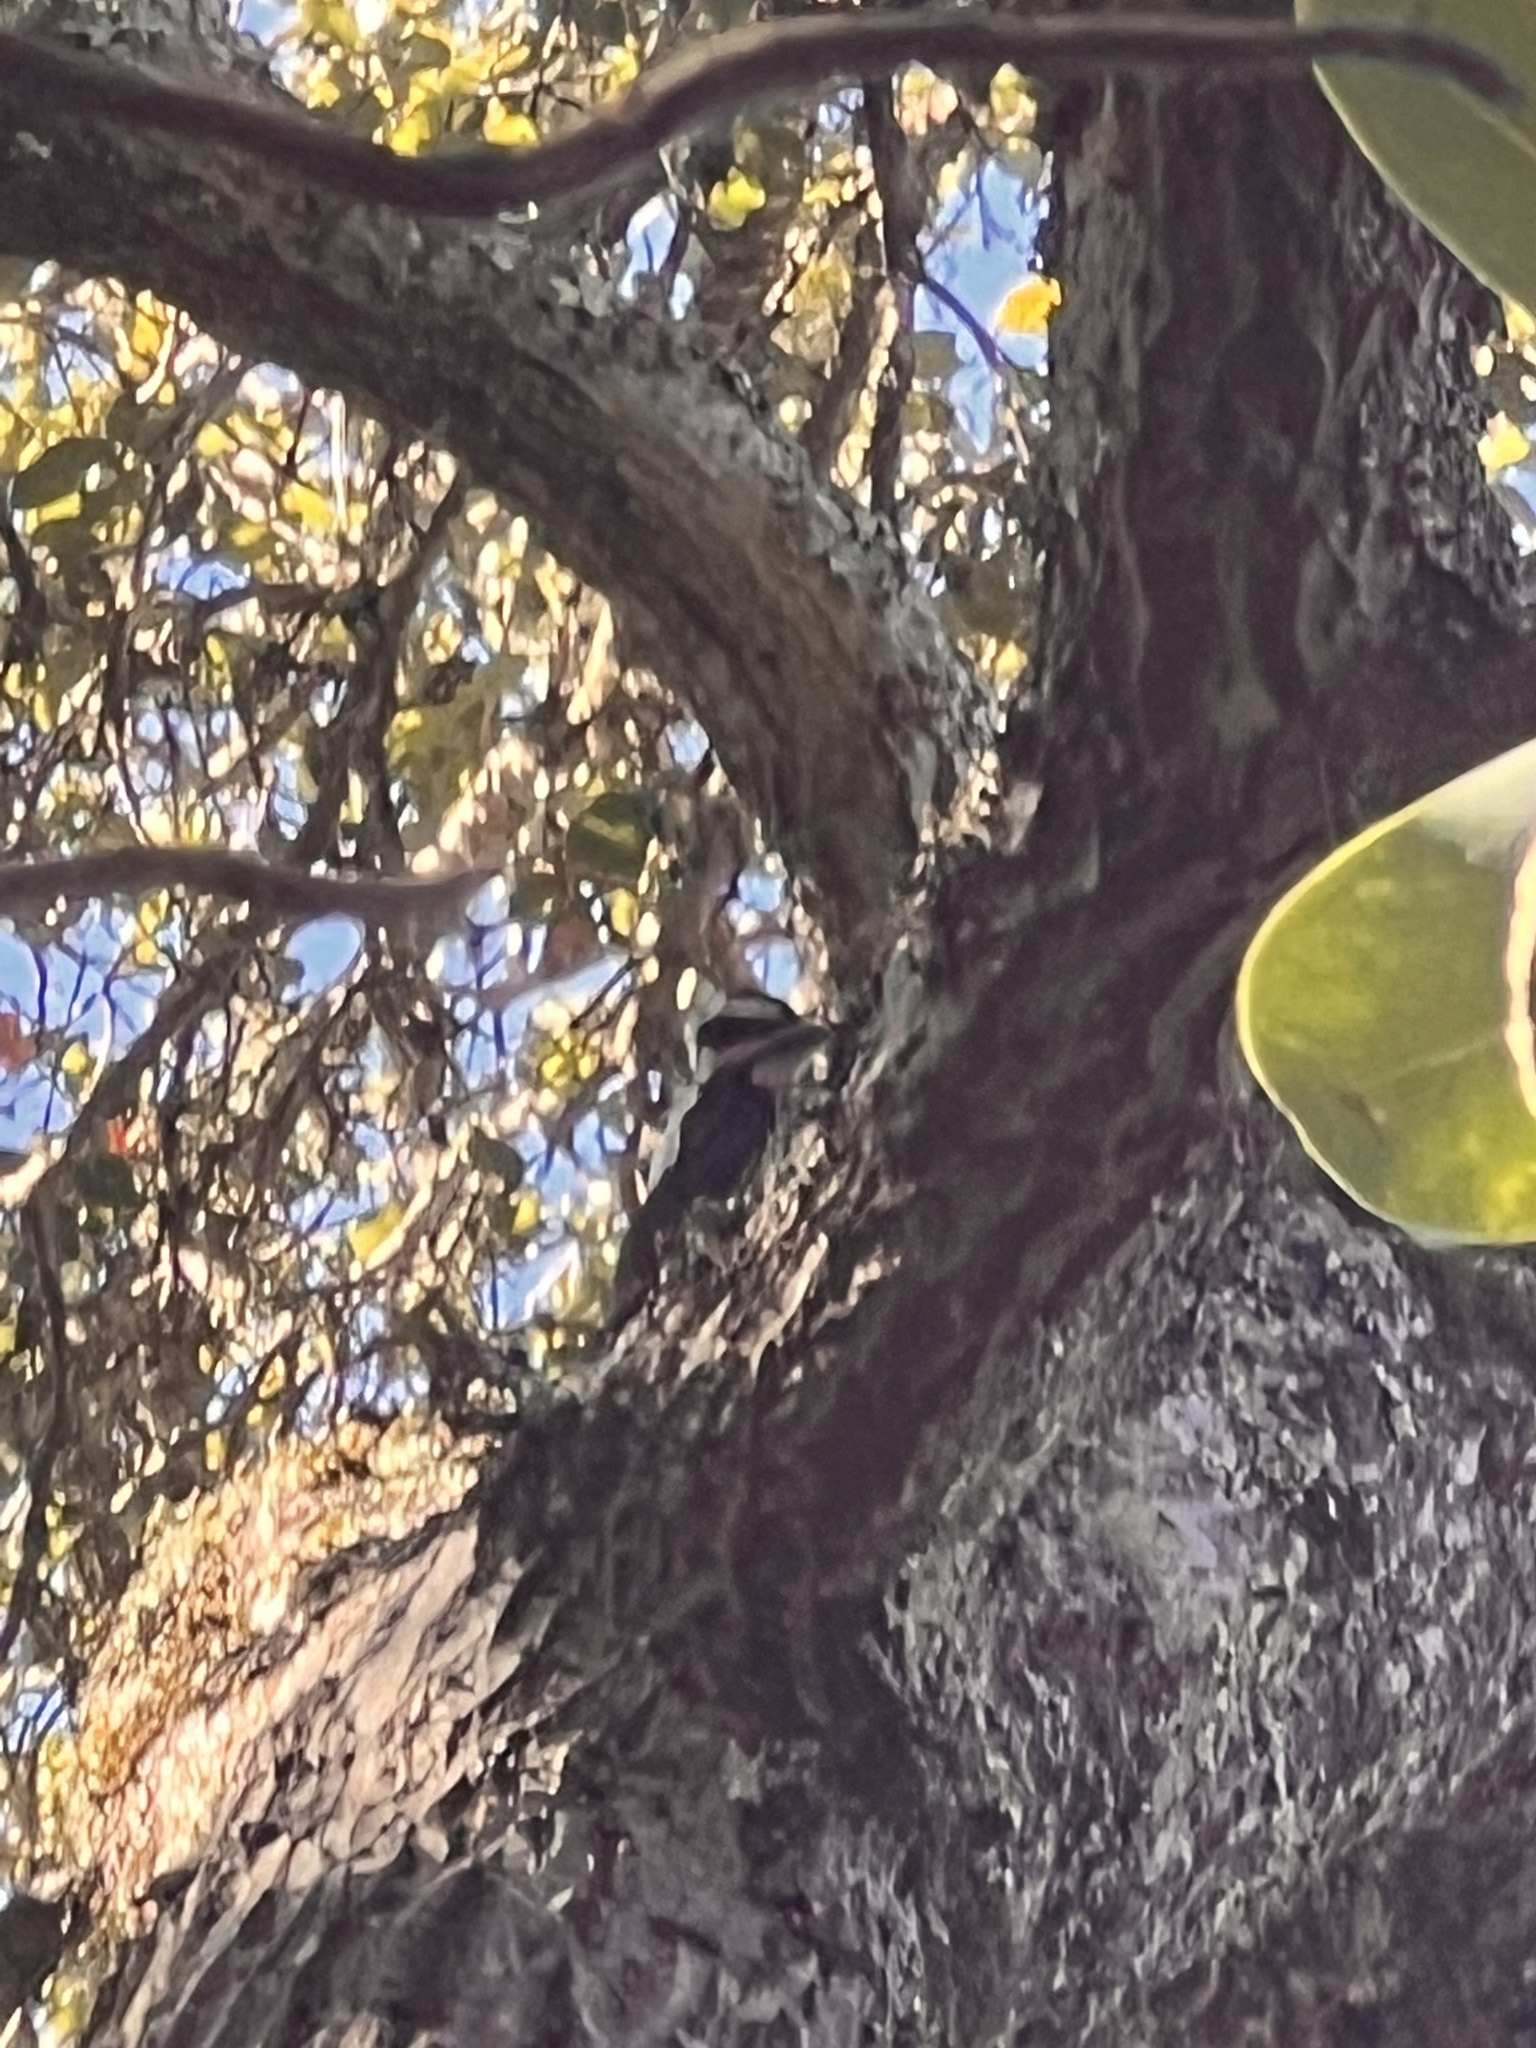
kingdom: Animalia
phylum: Chordata
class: Aves
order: Piciformes
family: Picidae
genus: Leuconotopicus
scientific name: Leuconotopicus villosus
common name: Hairy woodpecker
